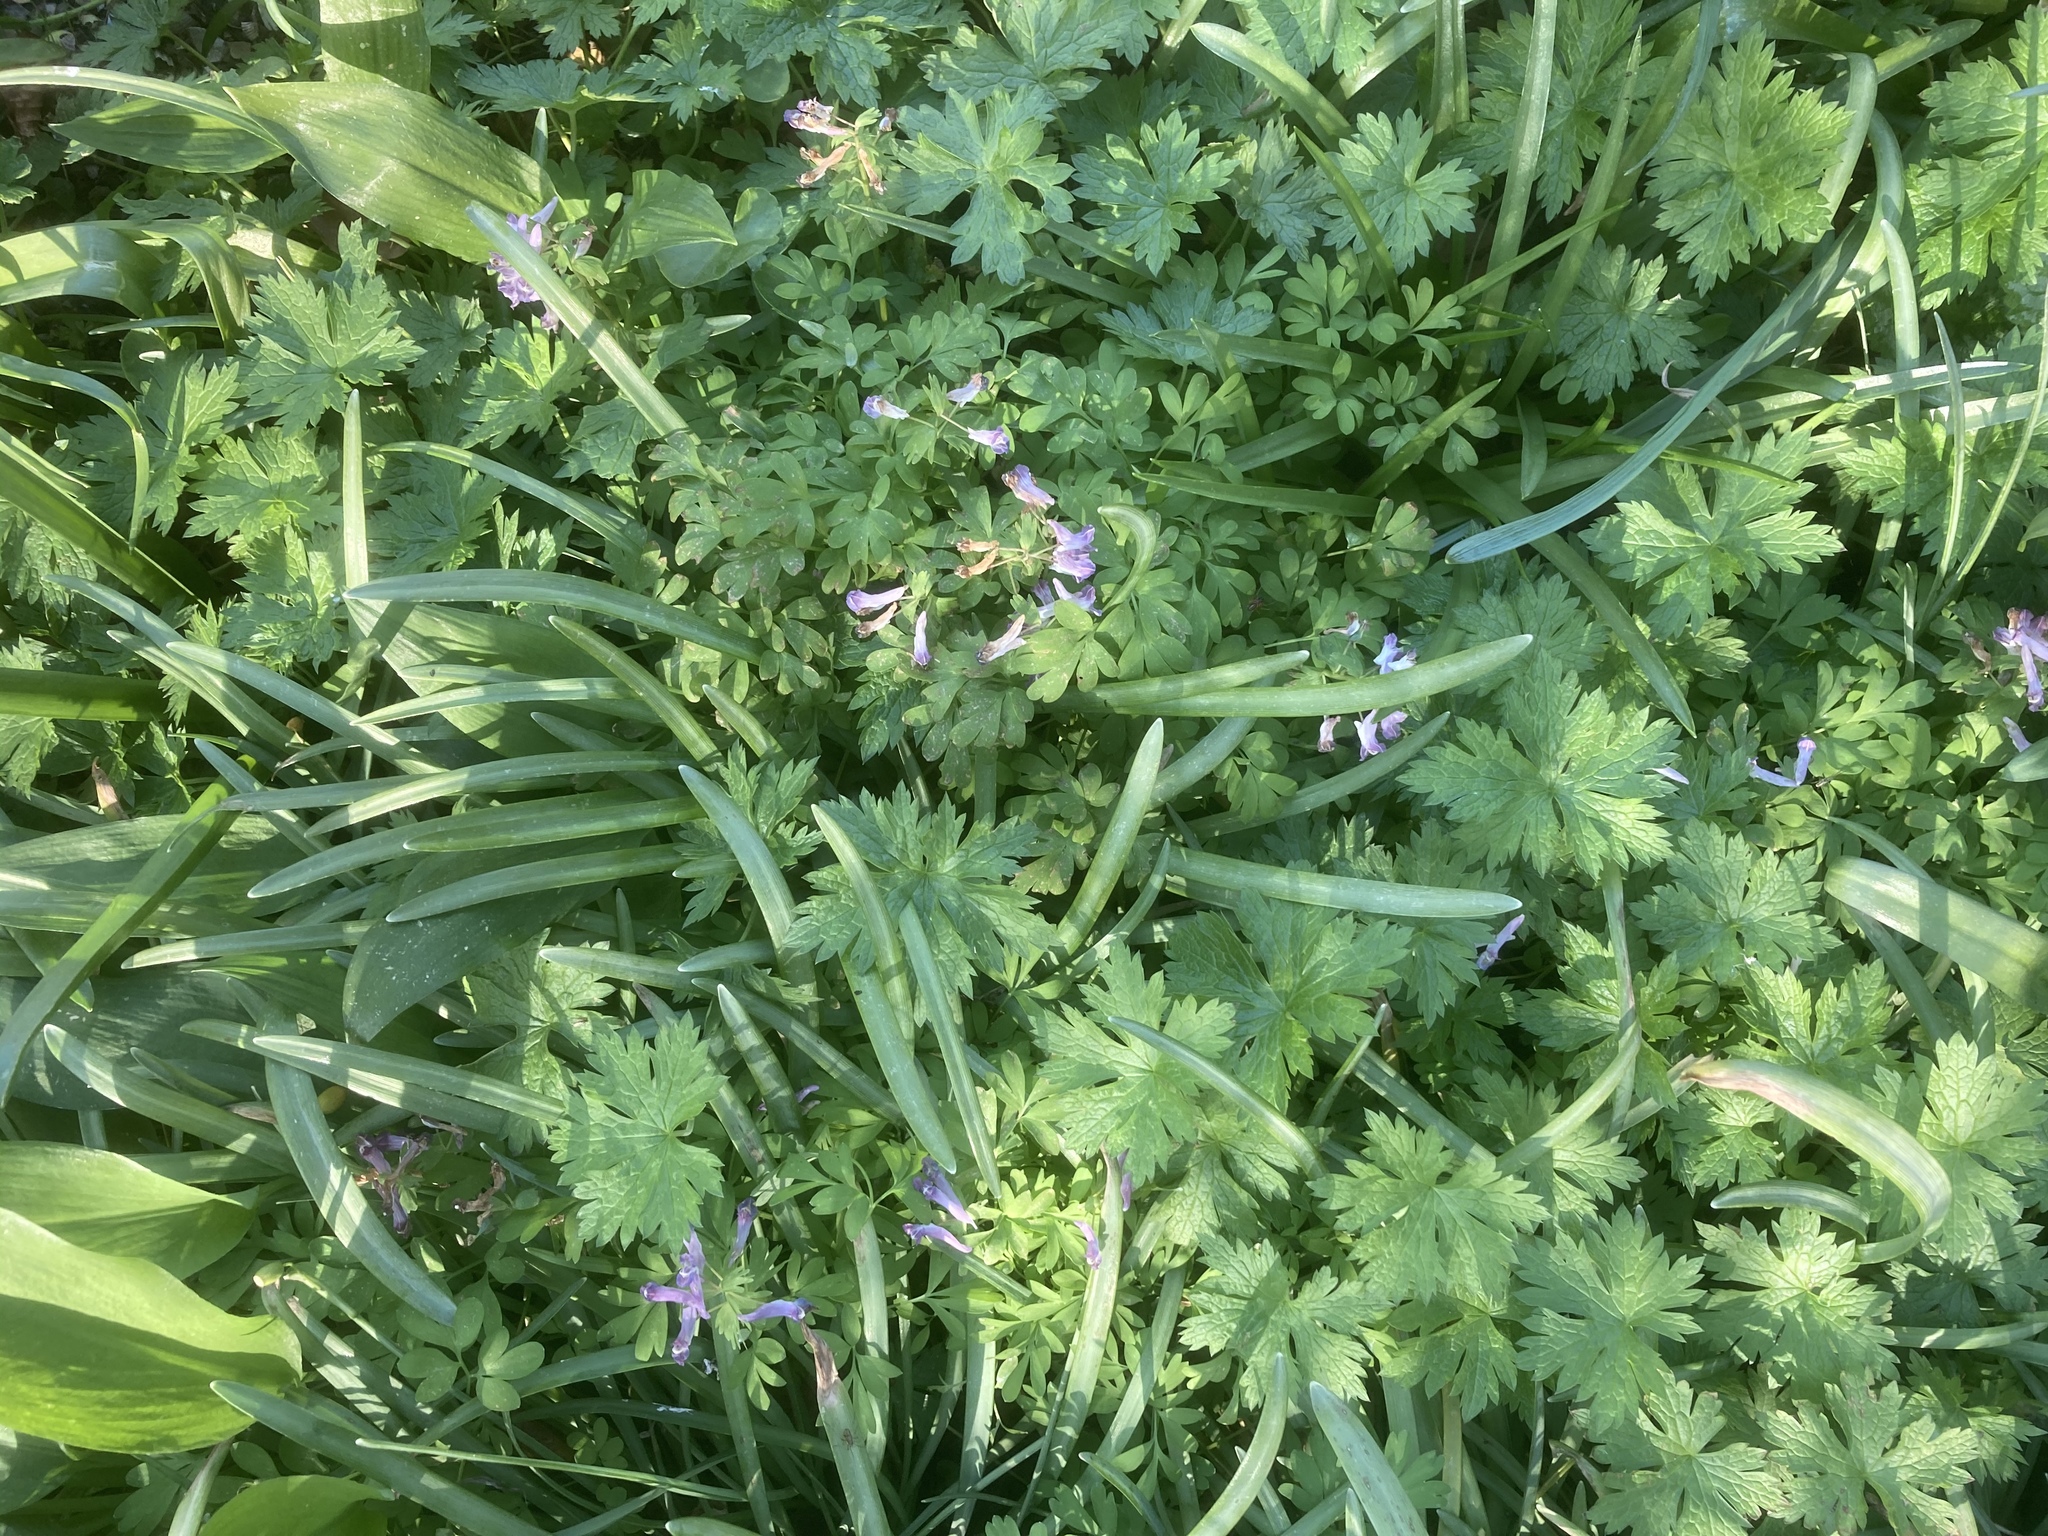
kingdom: Plantae
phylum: Tracheophyta
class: Magnoliopsida
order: Ranunculales
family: Papaveraceae
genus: Corydalis
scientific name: Corydalis solida
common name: Bird-in-a-bush
